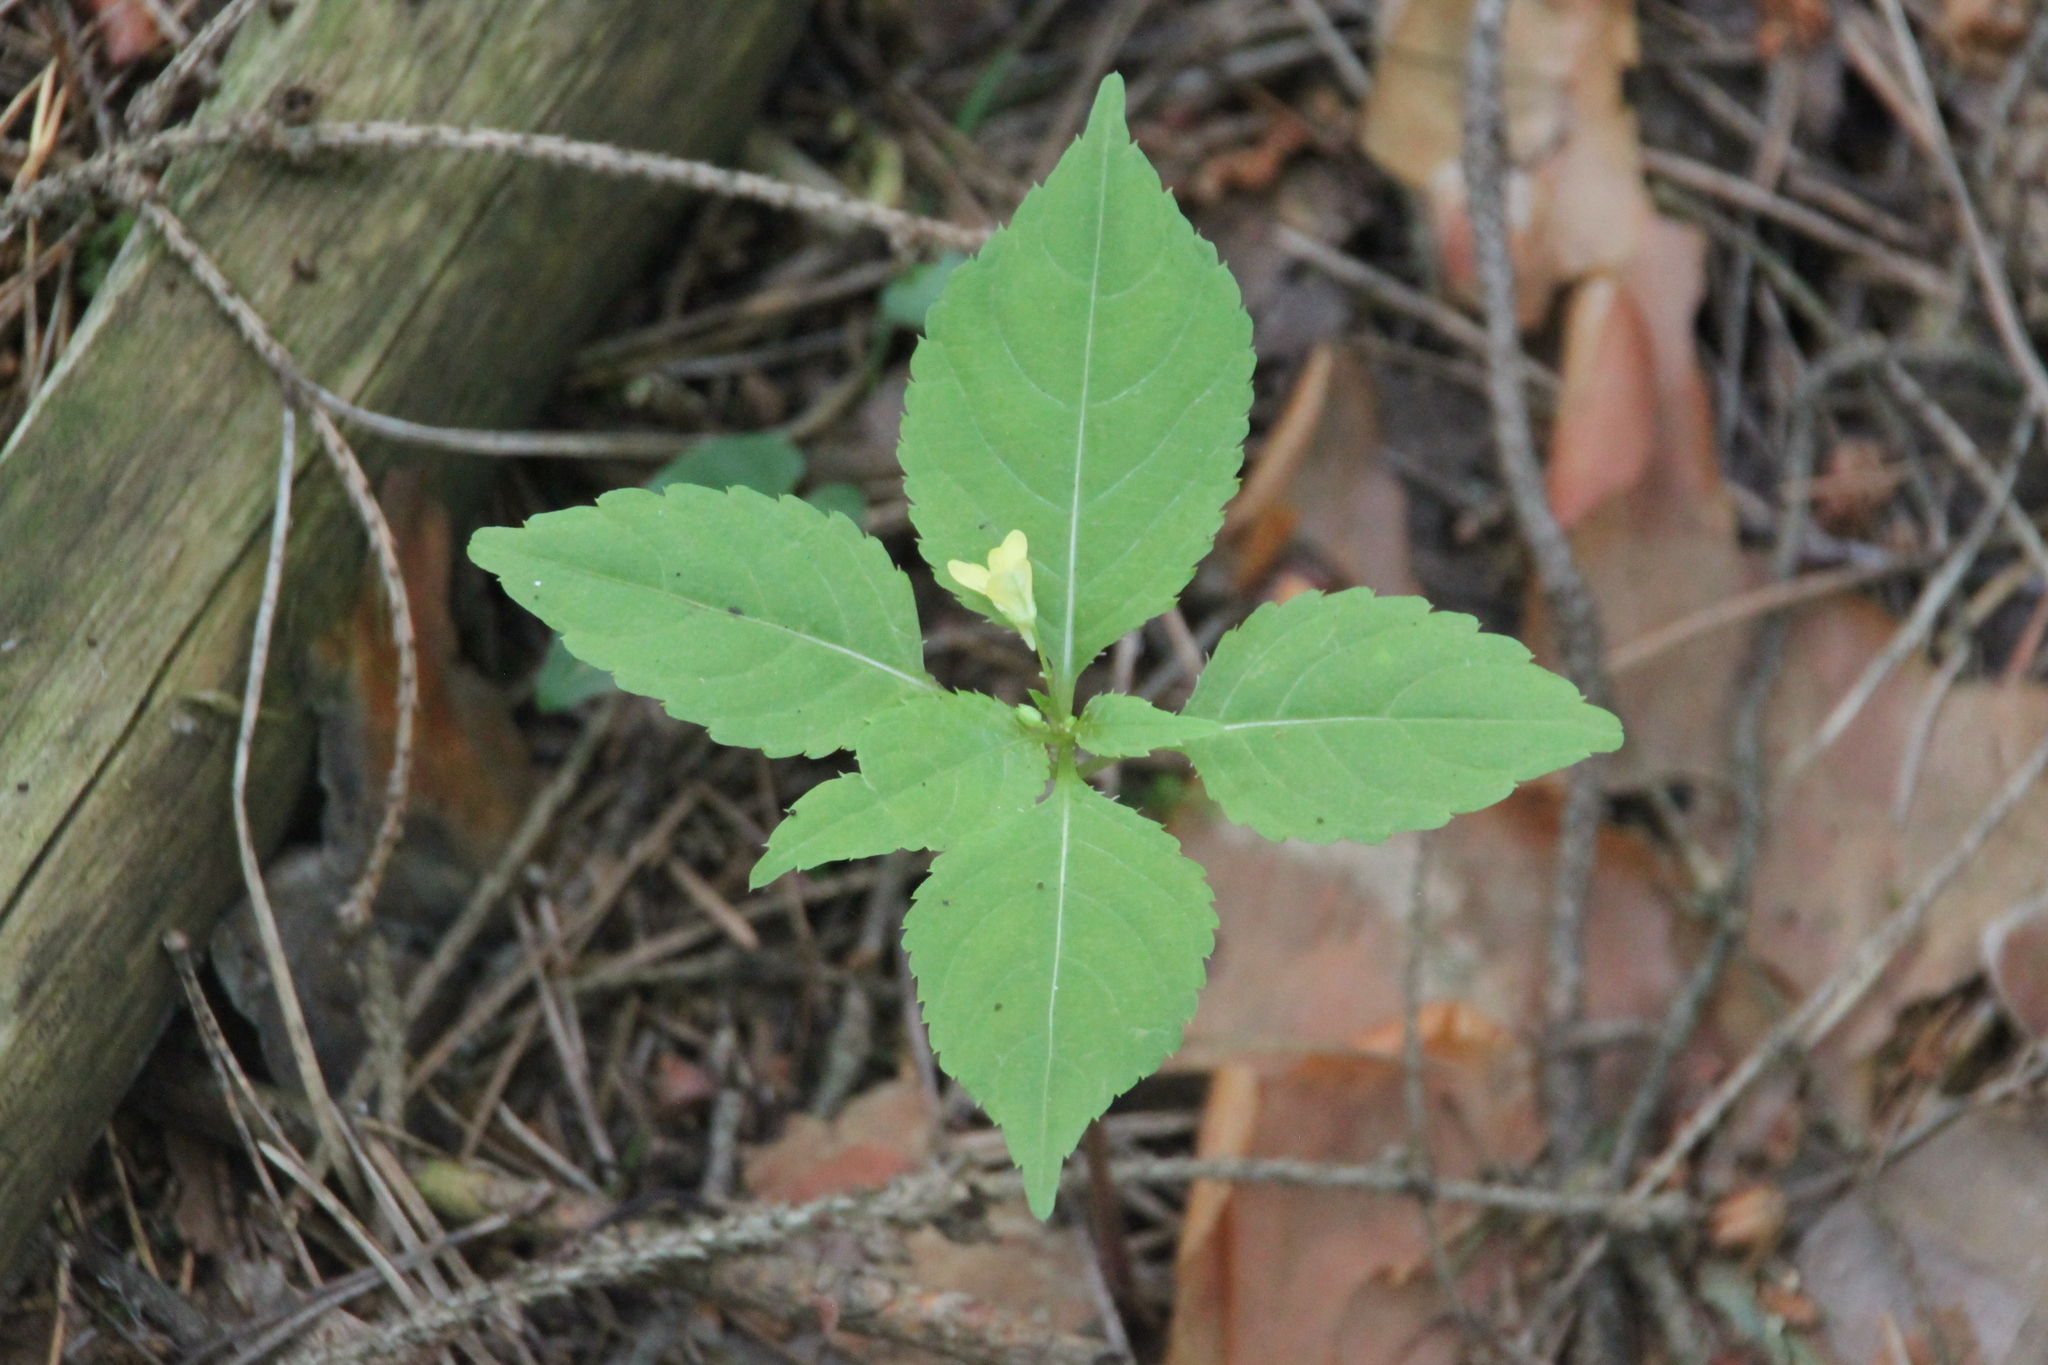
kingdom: Plantae
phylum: Tracheophyta
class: Magnoliopsida
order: Ericales
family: Balsaminaceae
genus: Impatiens
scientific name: Impatiens parviflora
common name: Small balsam
